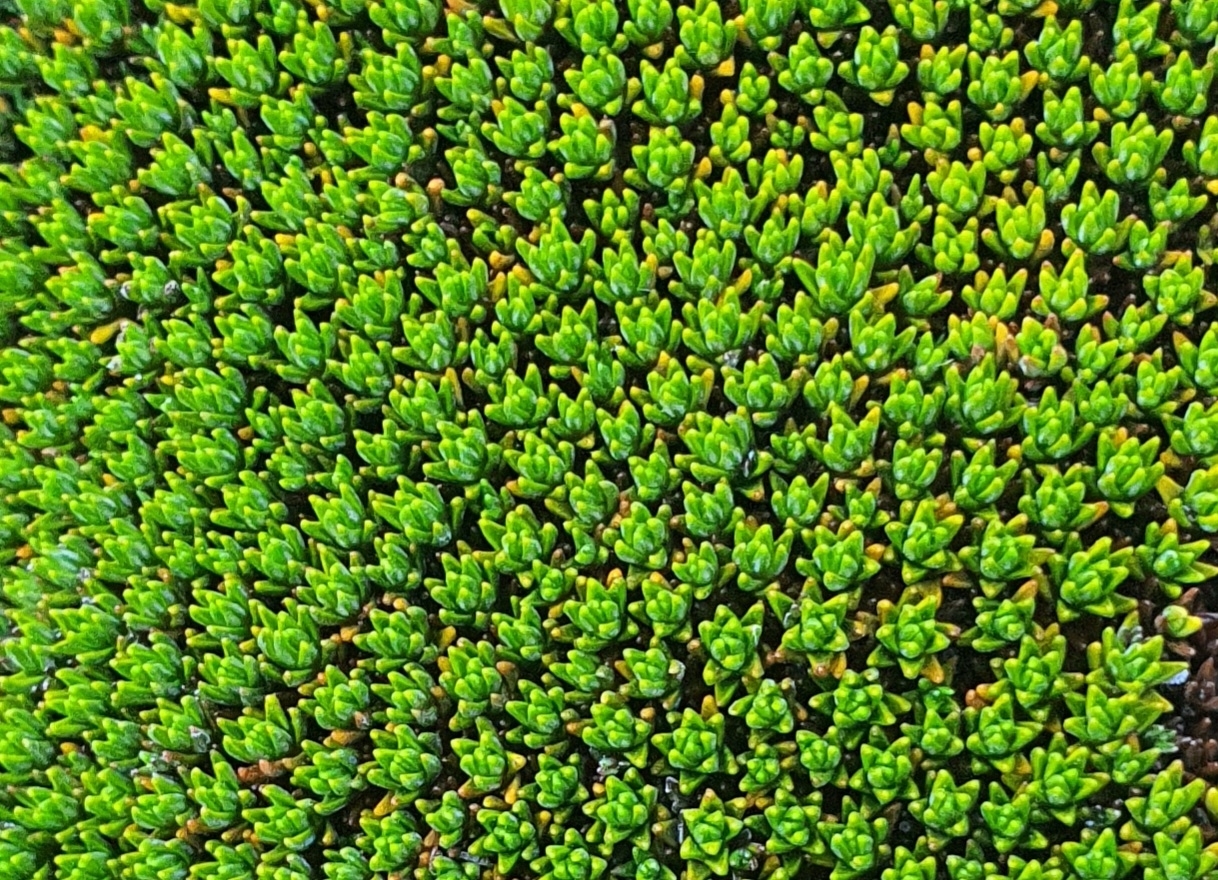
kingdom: Plantae
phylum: Tracheophyta
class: Magnoliopsida
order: Asterales
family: Asteraceae
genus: Raoulia
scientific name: Raoulia haastii
